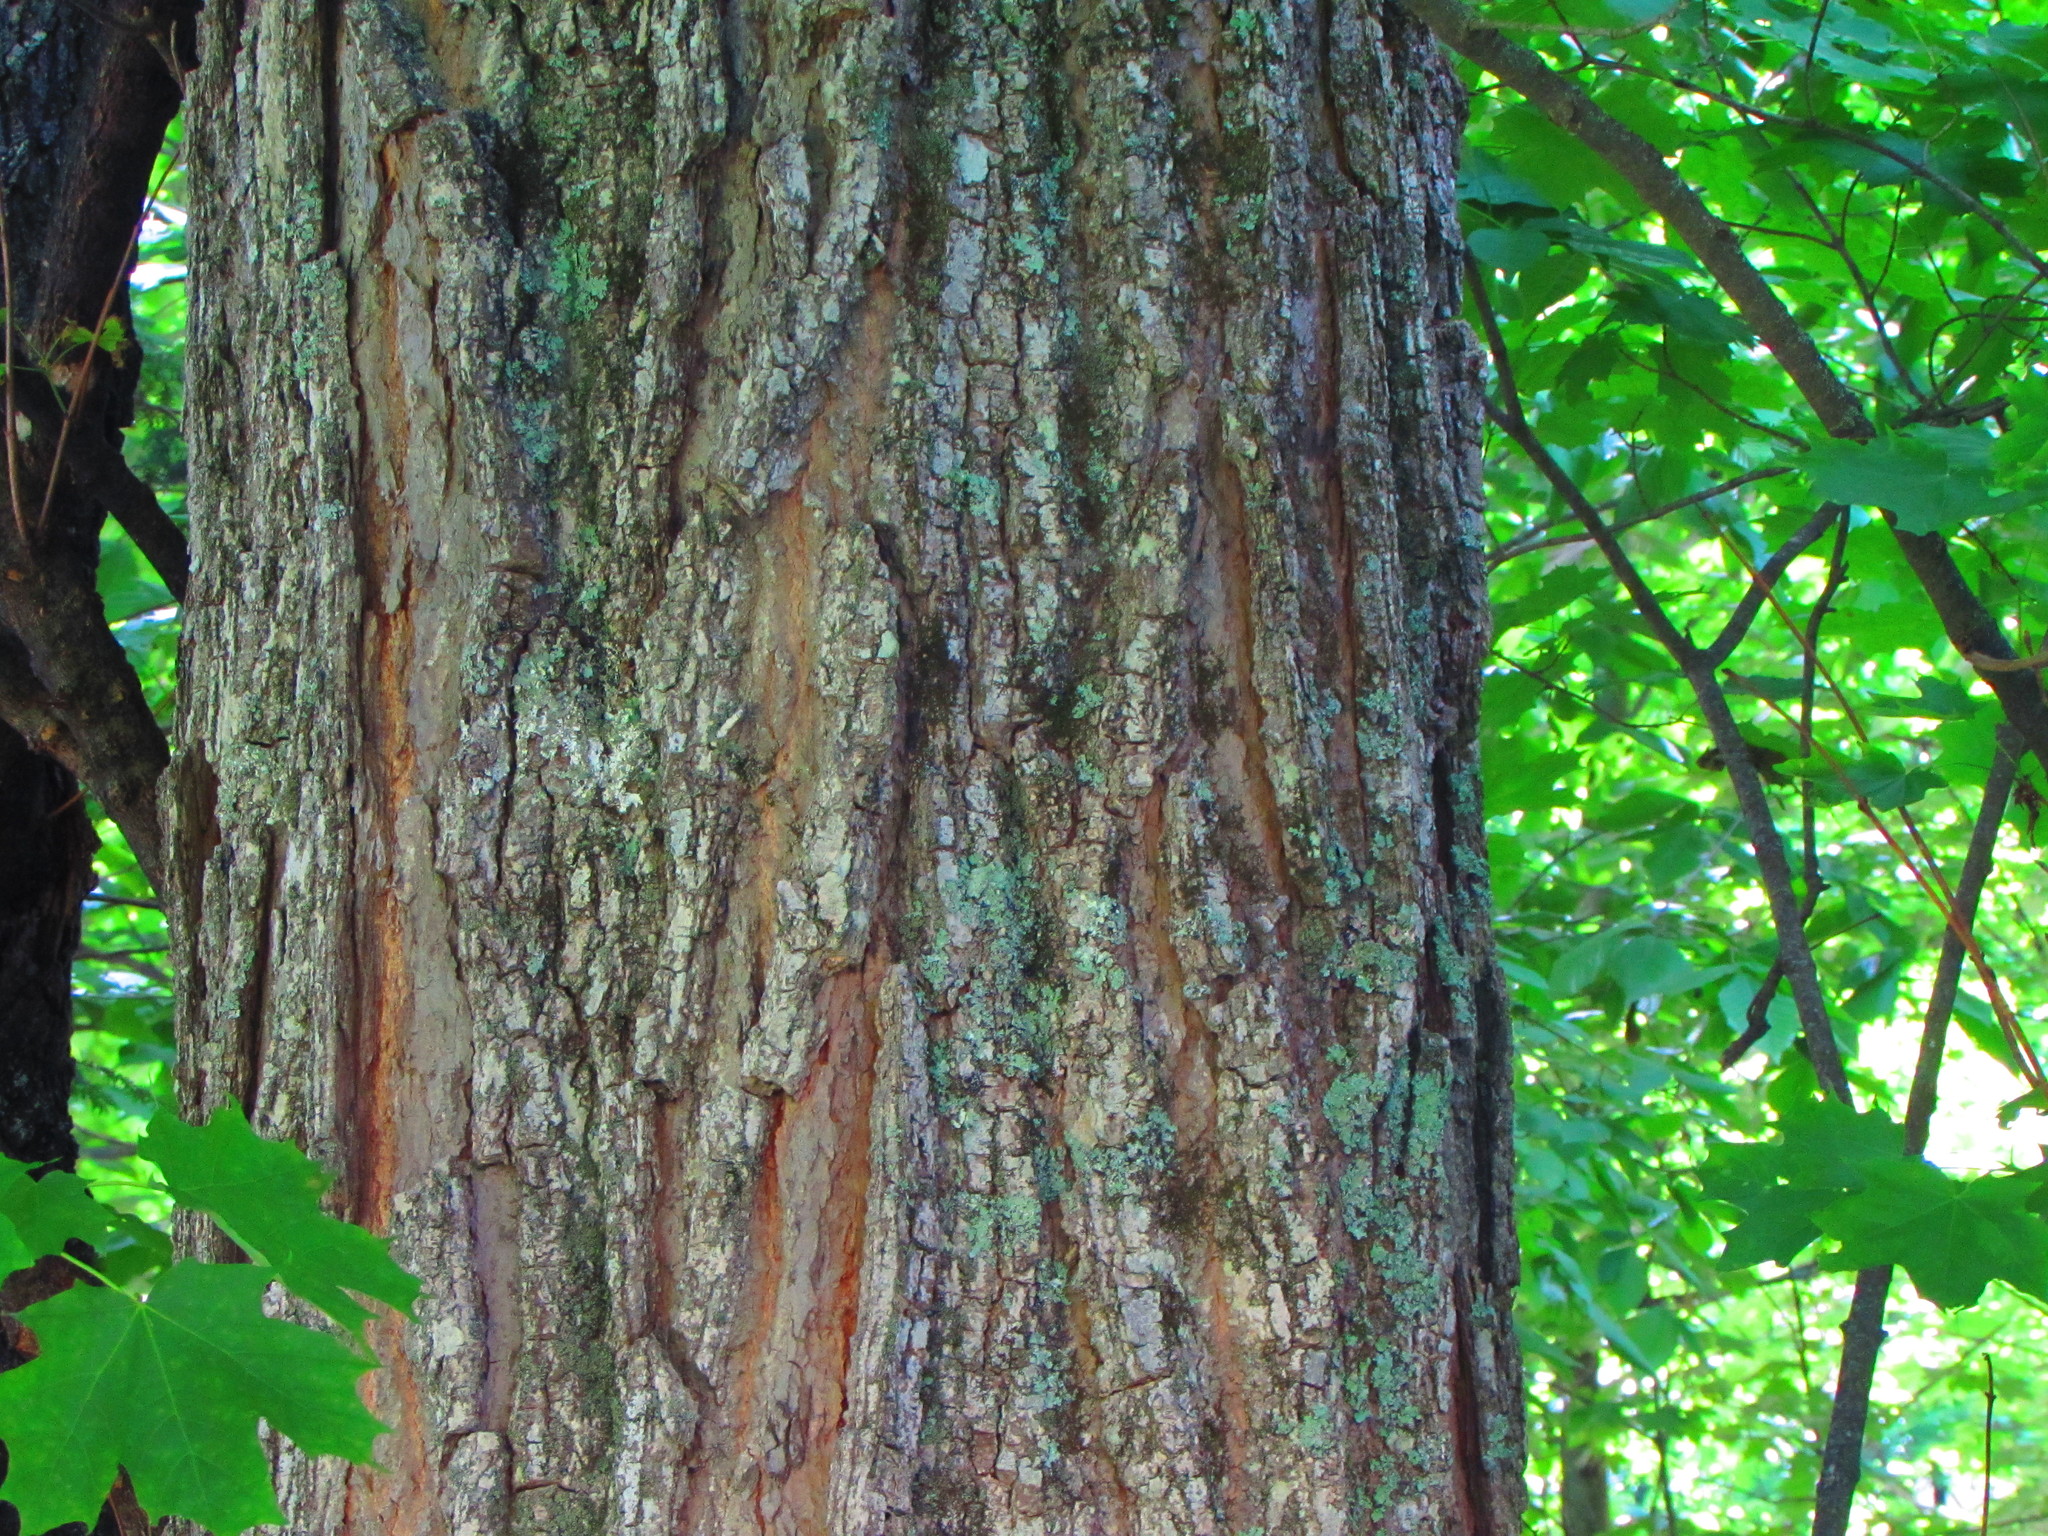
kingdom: Plantae
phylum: Tracheophyta
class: Magnoliopsida
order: Sapindales
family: Sapindaceae
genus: Acer
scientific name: Acer saccharum
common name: Sugar maple
